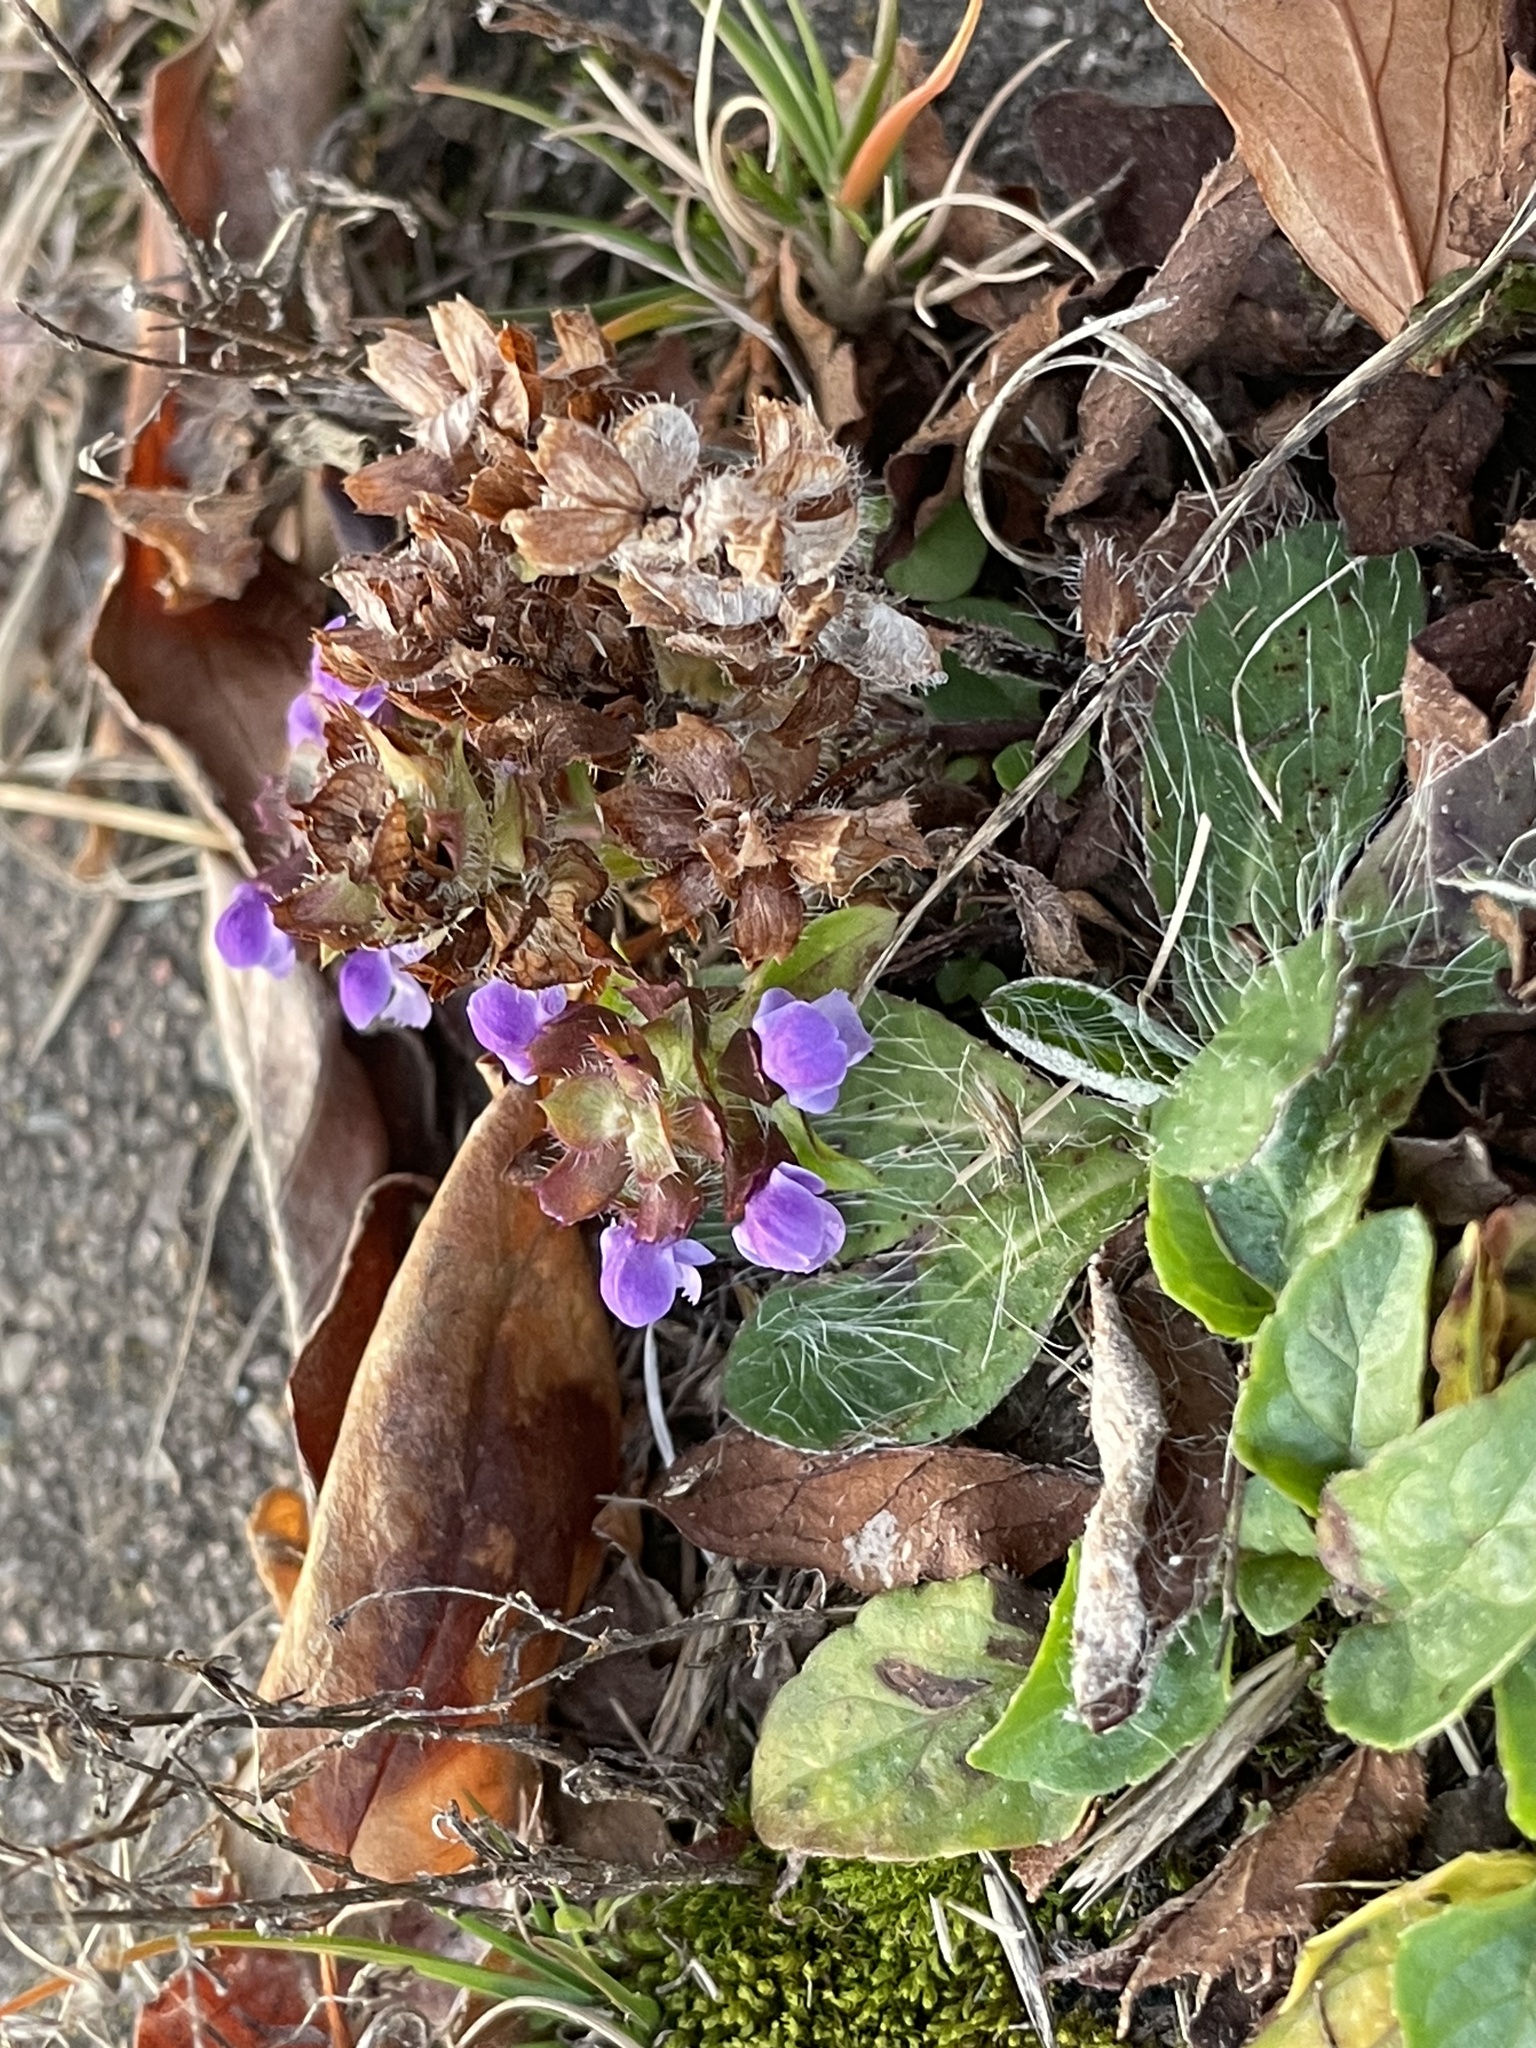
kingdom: Plantae
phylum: Tracheophyta
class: Magnoliopsida
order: Lamiales
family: Lamiaceae
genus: Prunella
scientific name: Prunella vulgaris
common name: Heal-all
